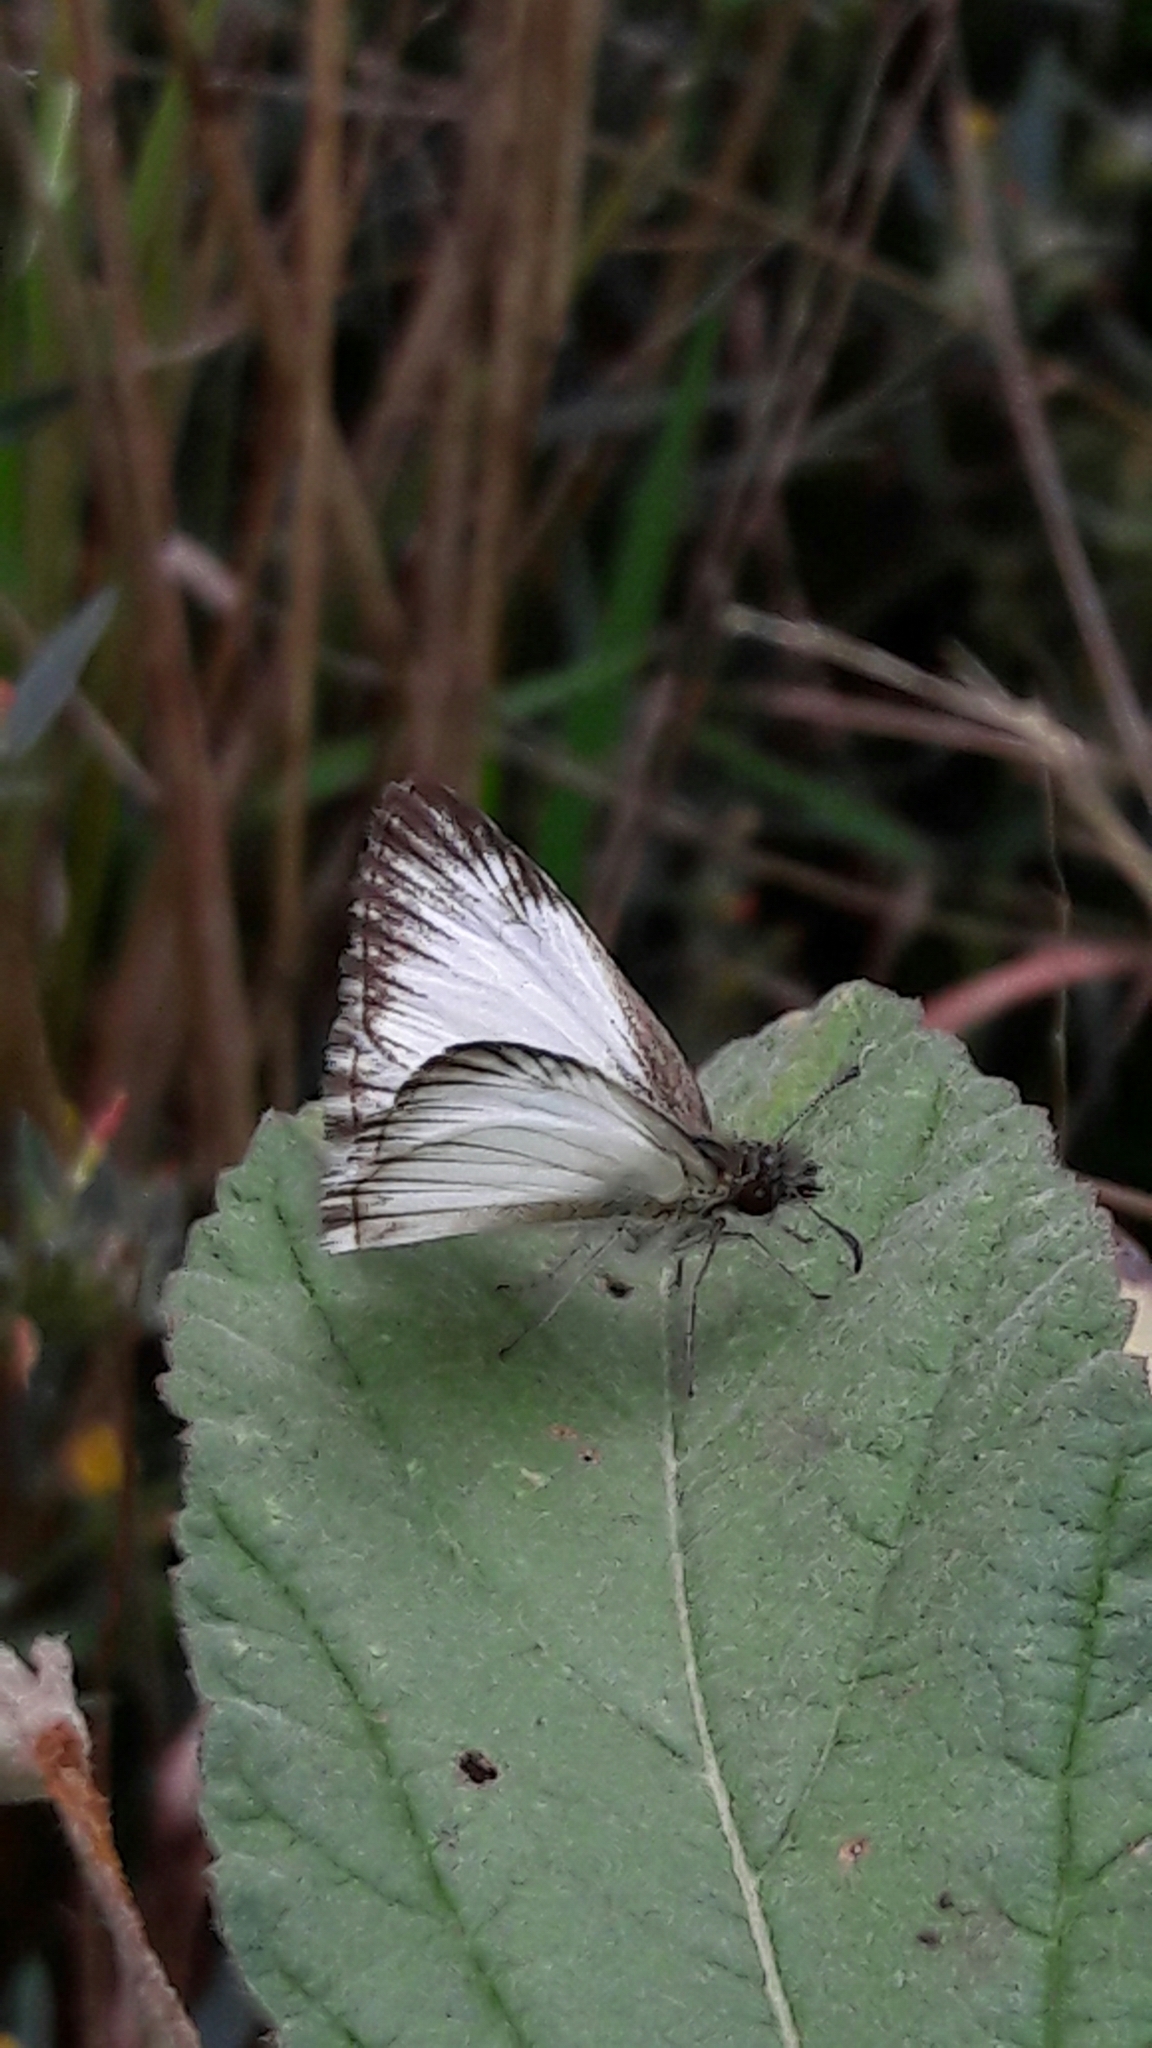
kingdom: Animalia
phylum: Arthropoda
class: Insecta
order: Lepidoptera
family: Hesperiidae
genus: Heliopetes
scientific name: Heliopetes arsalte
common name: Veined white-skipper
